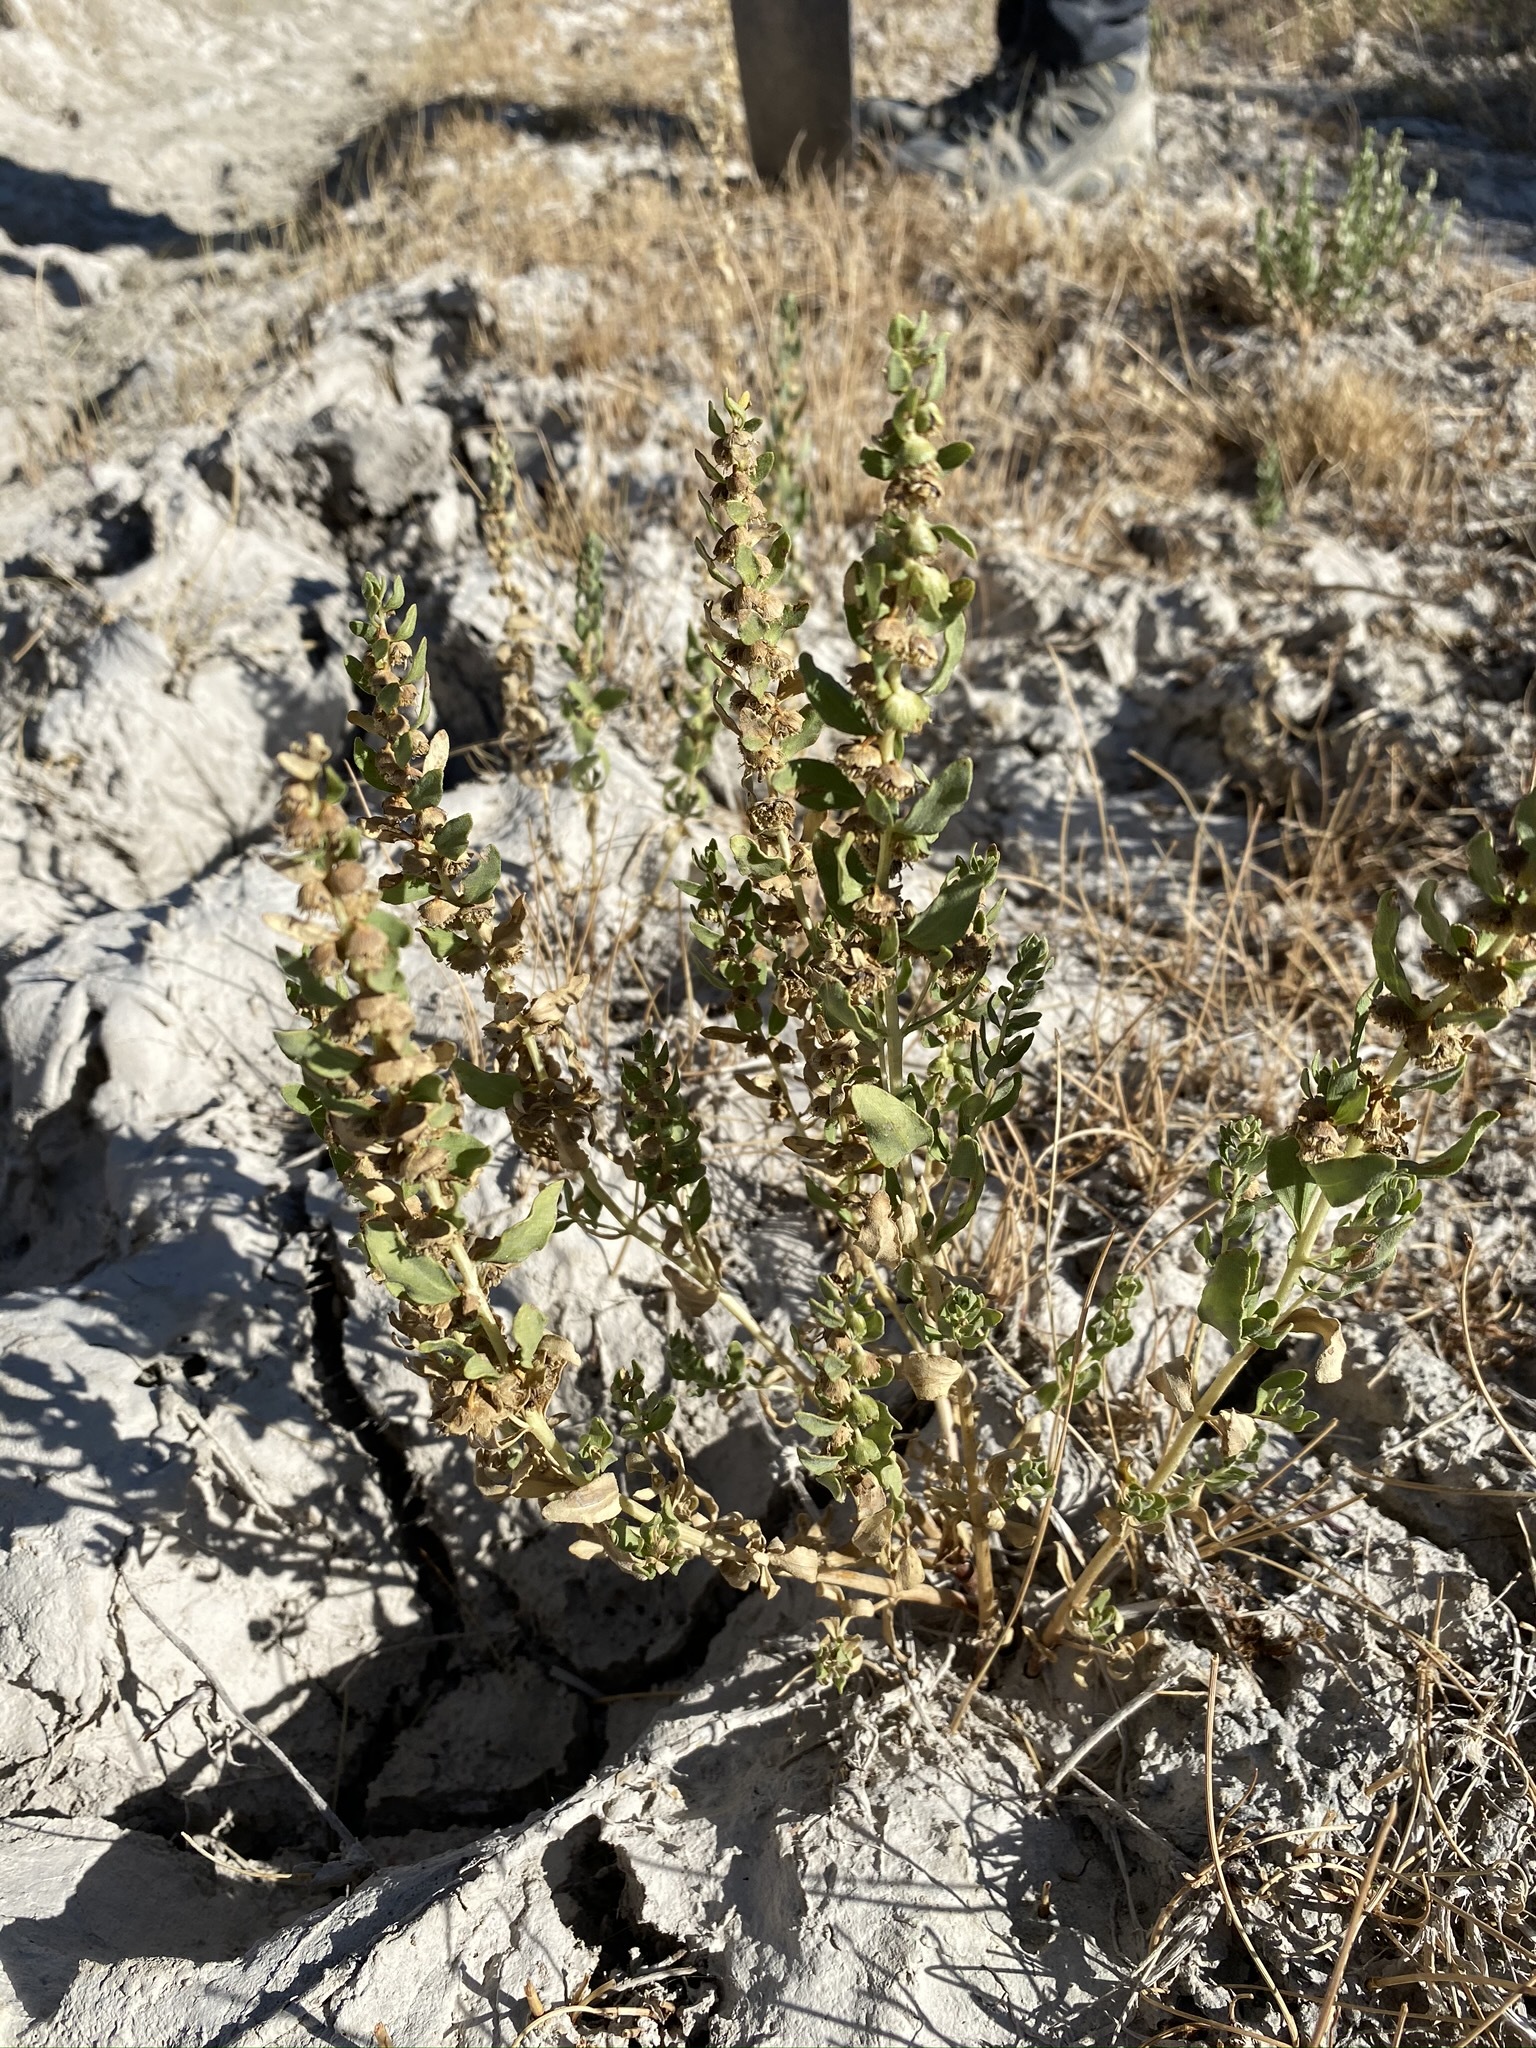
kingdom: Plantae
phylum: Tracheophyta
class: Magnoliopsida
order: Asterales
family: Asteraceae
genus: Iva
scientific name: Iva axillaris
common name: Poverty sumpweed
